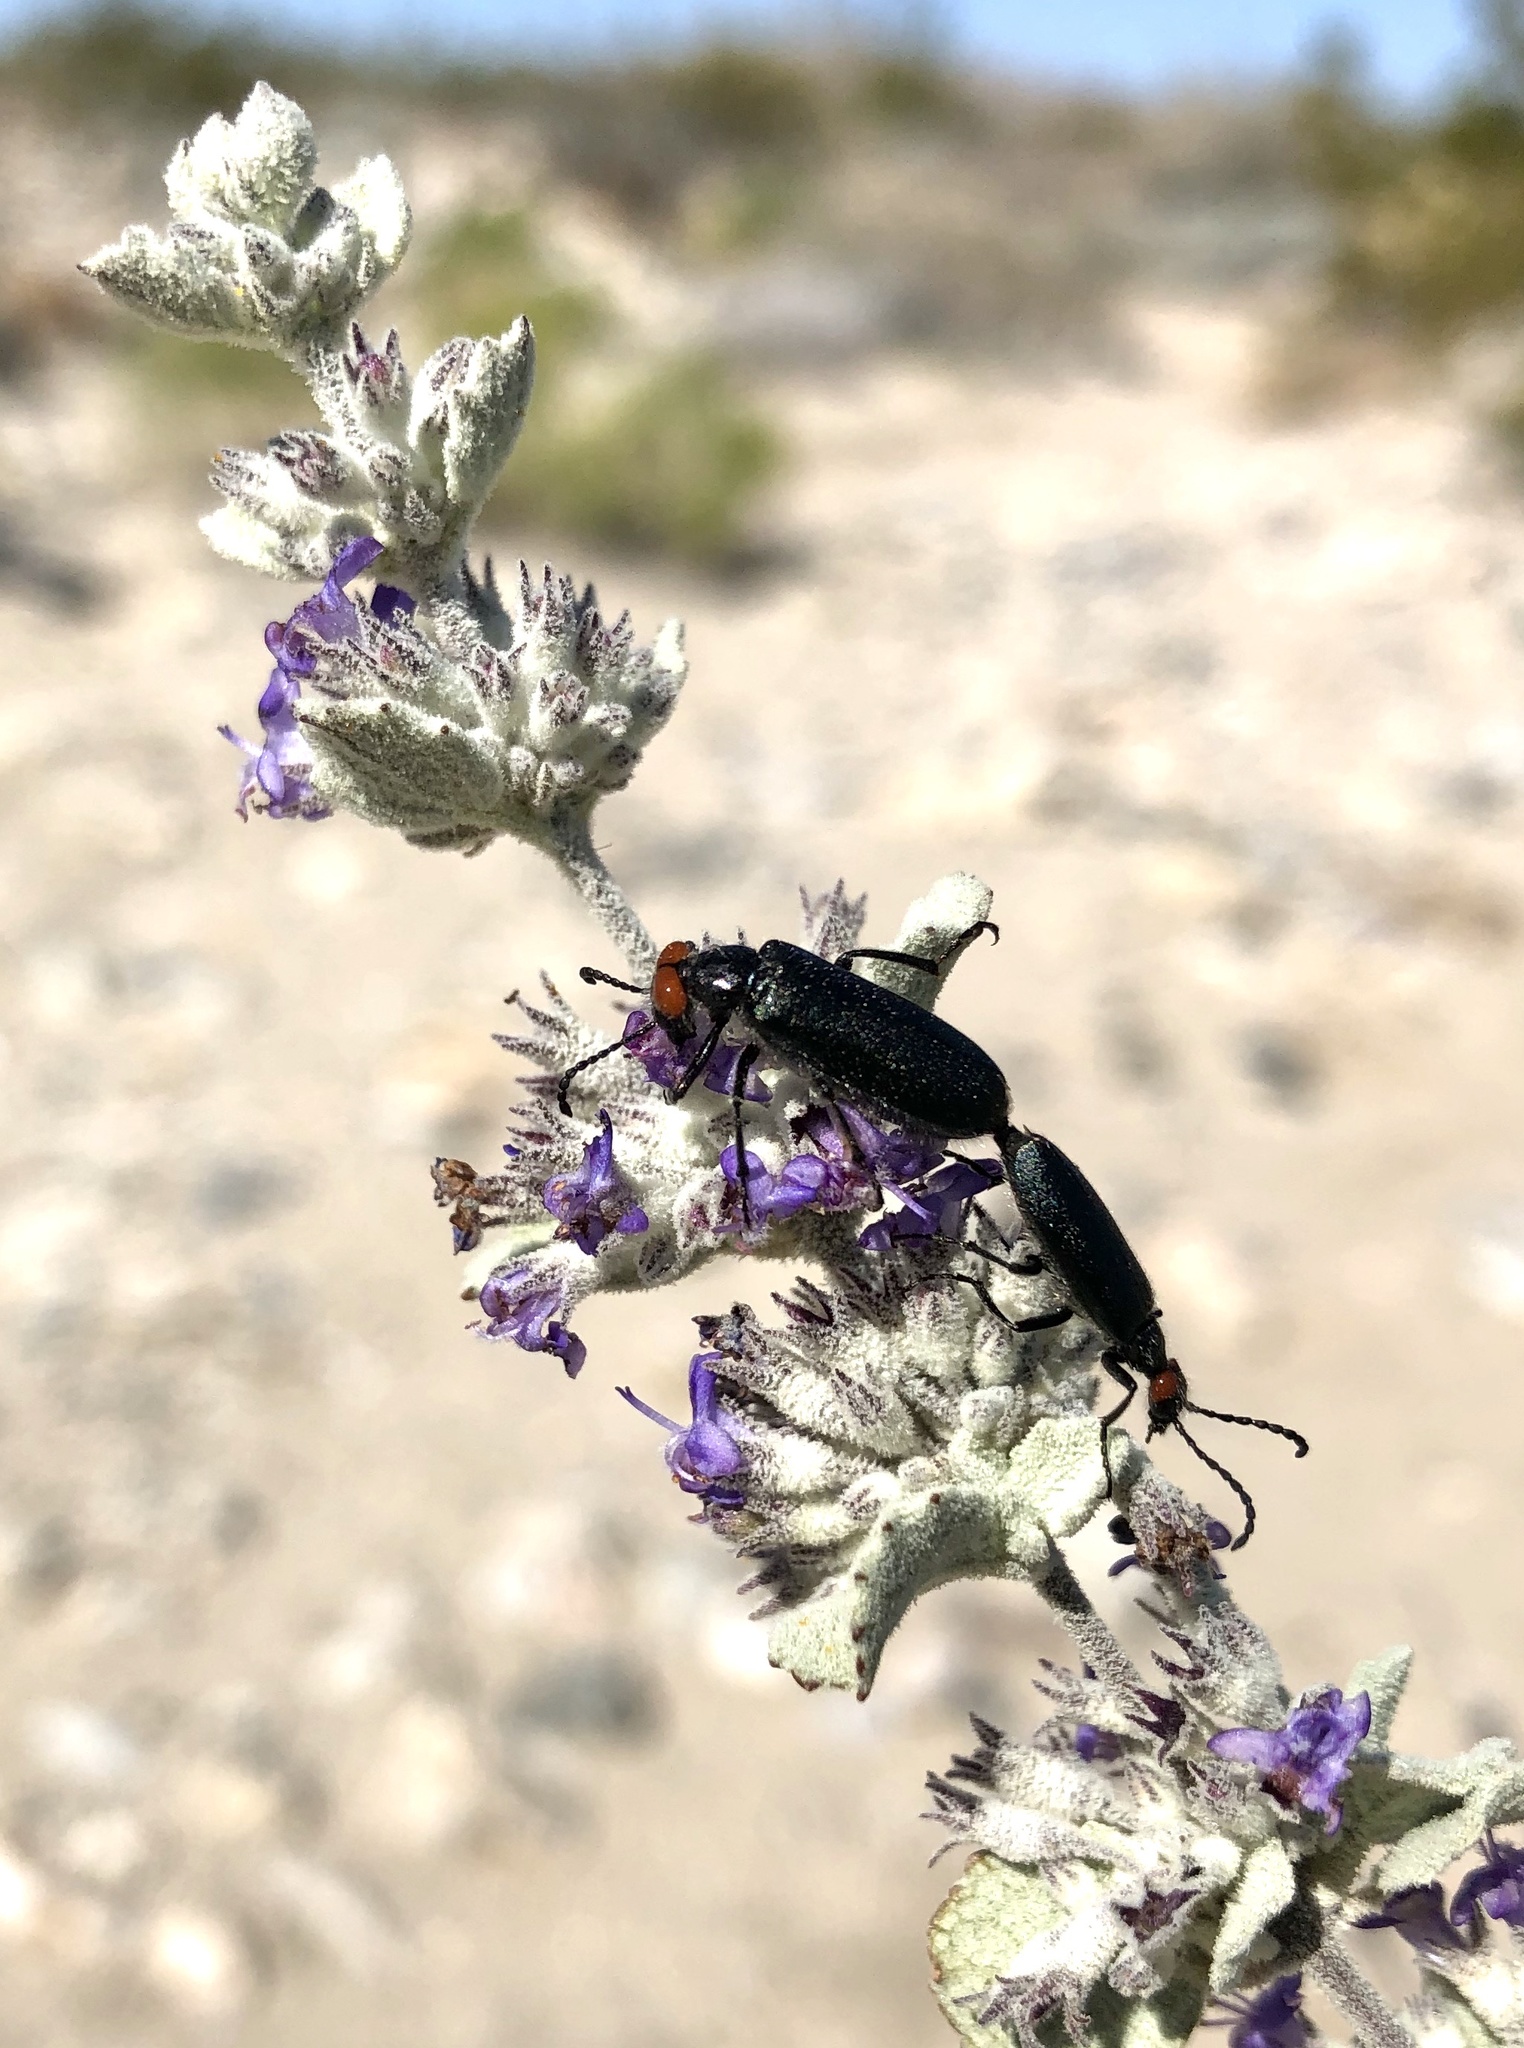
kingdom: Animalia
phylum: Arthropoda
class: Insecta
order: Coleoptera
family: Meloidae
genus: Lytta
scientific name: Lytta auriculata
